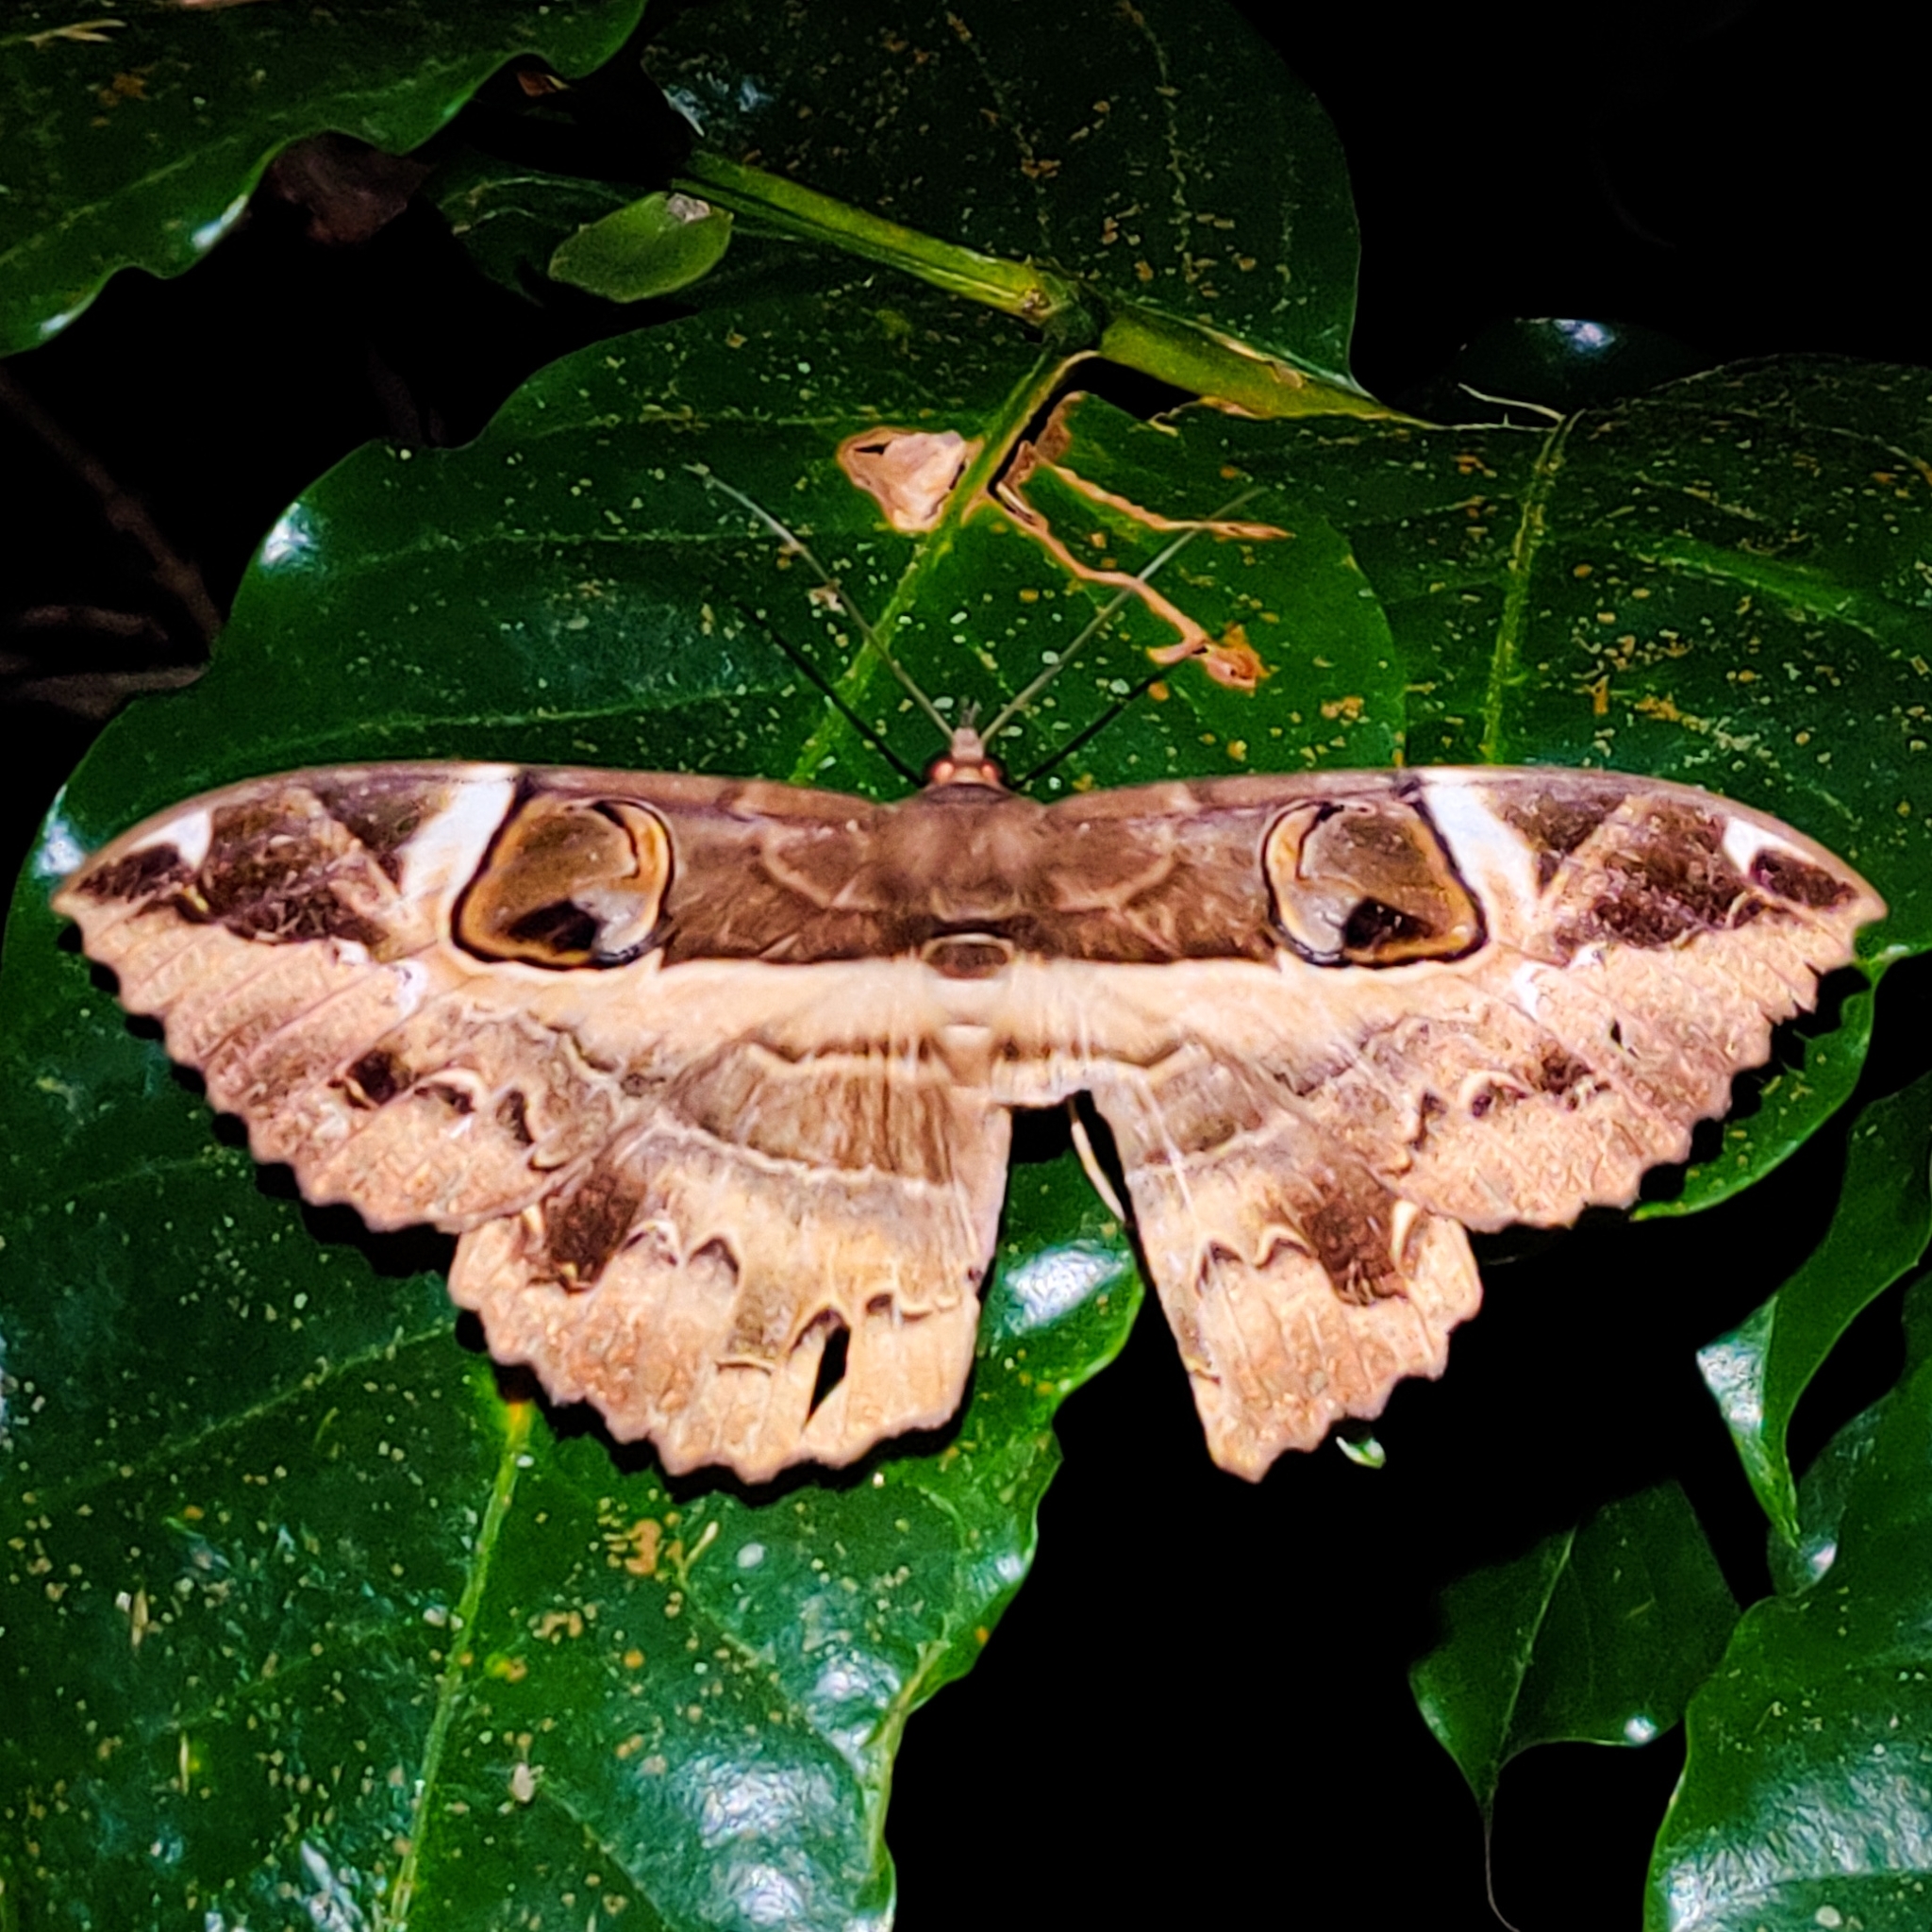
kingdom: Animalia
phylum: Arthropoda
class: Insecta
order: Lepidoptera
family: Erebidae
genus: Erebus
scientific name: Erebus ephesperis
